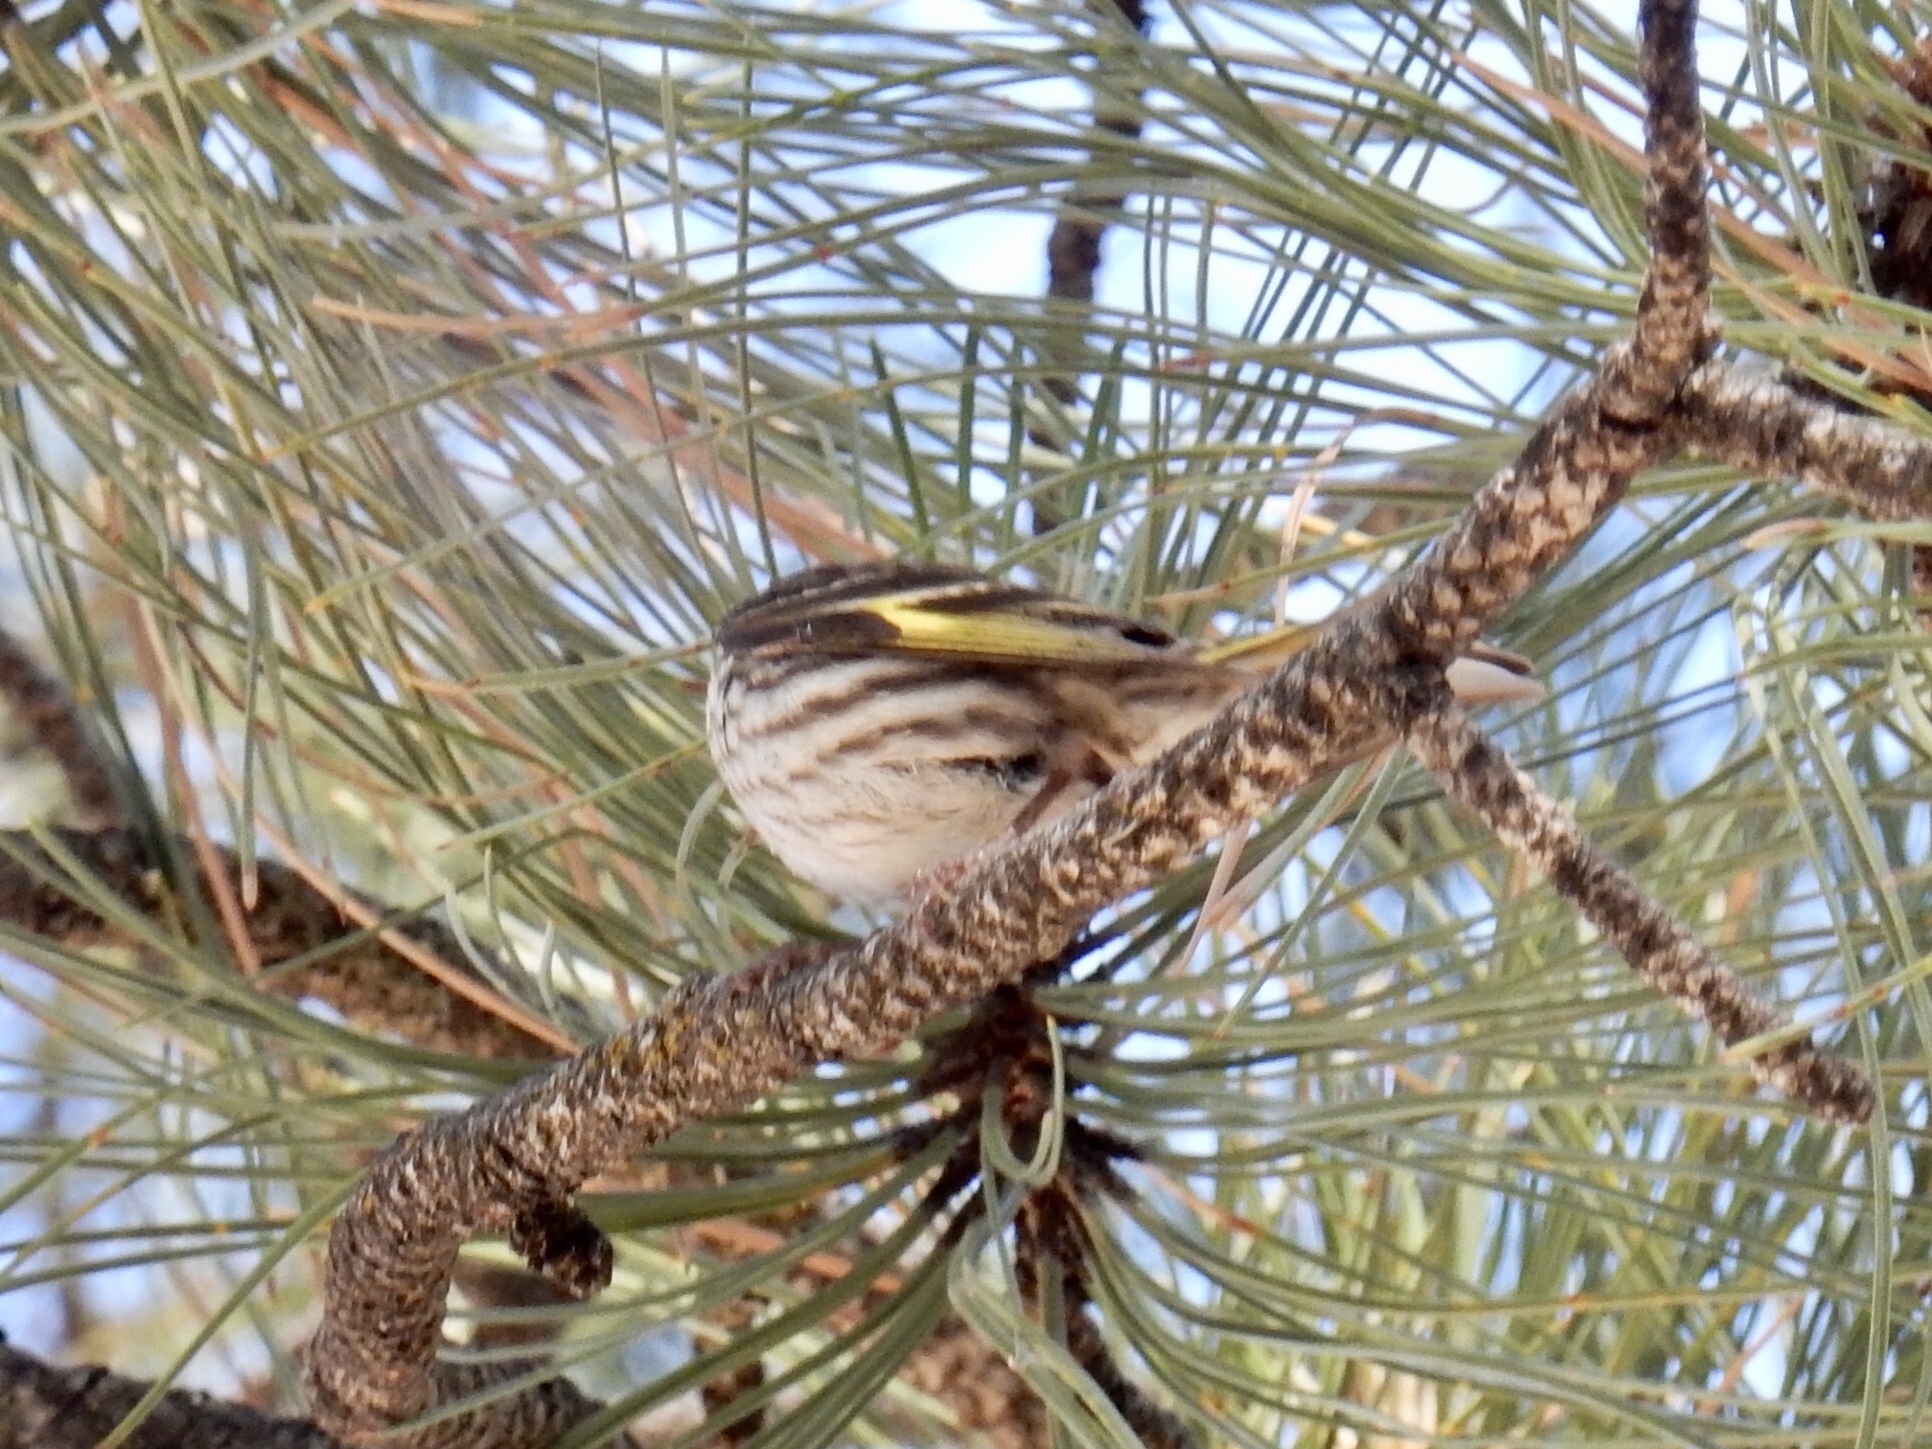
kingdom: Animalia
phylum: Chordata
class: Aves
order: Passeriformes
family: Fringillidae
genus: Spinus
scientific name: Spinus pinus
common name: Pine siskin
